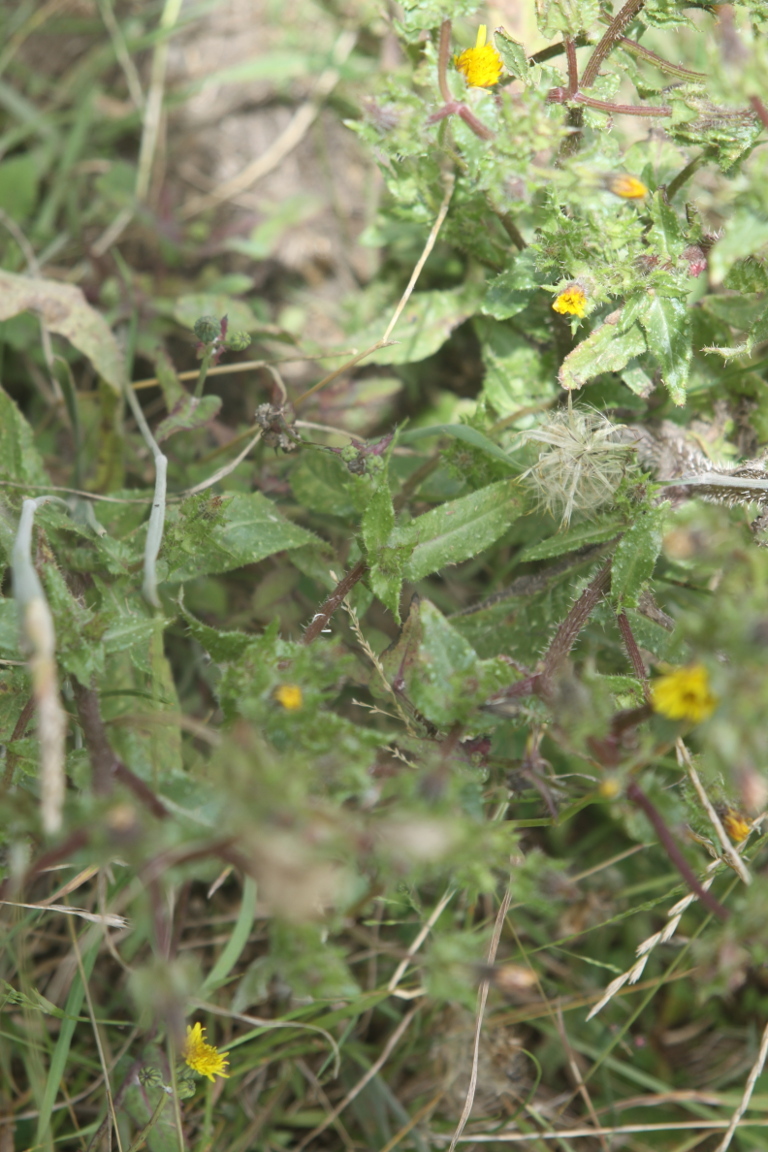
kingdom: Plantae
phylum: Tracheophyta
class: Magnoliopsida
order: Asterales
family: Asteraceae
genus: Helminthotheca
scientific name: Helminthotheca echioides
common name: Ox-tongue
